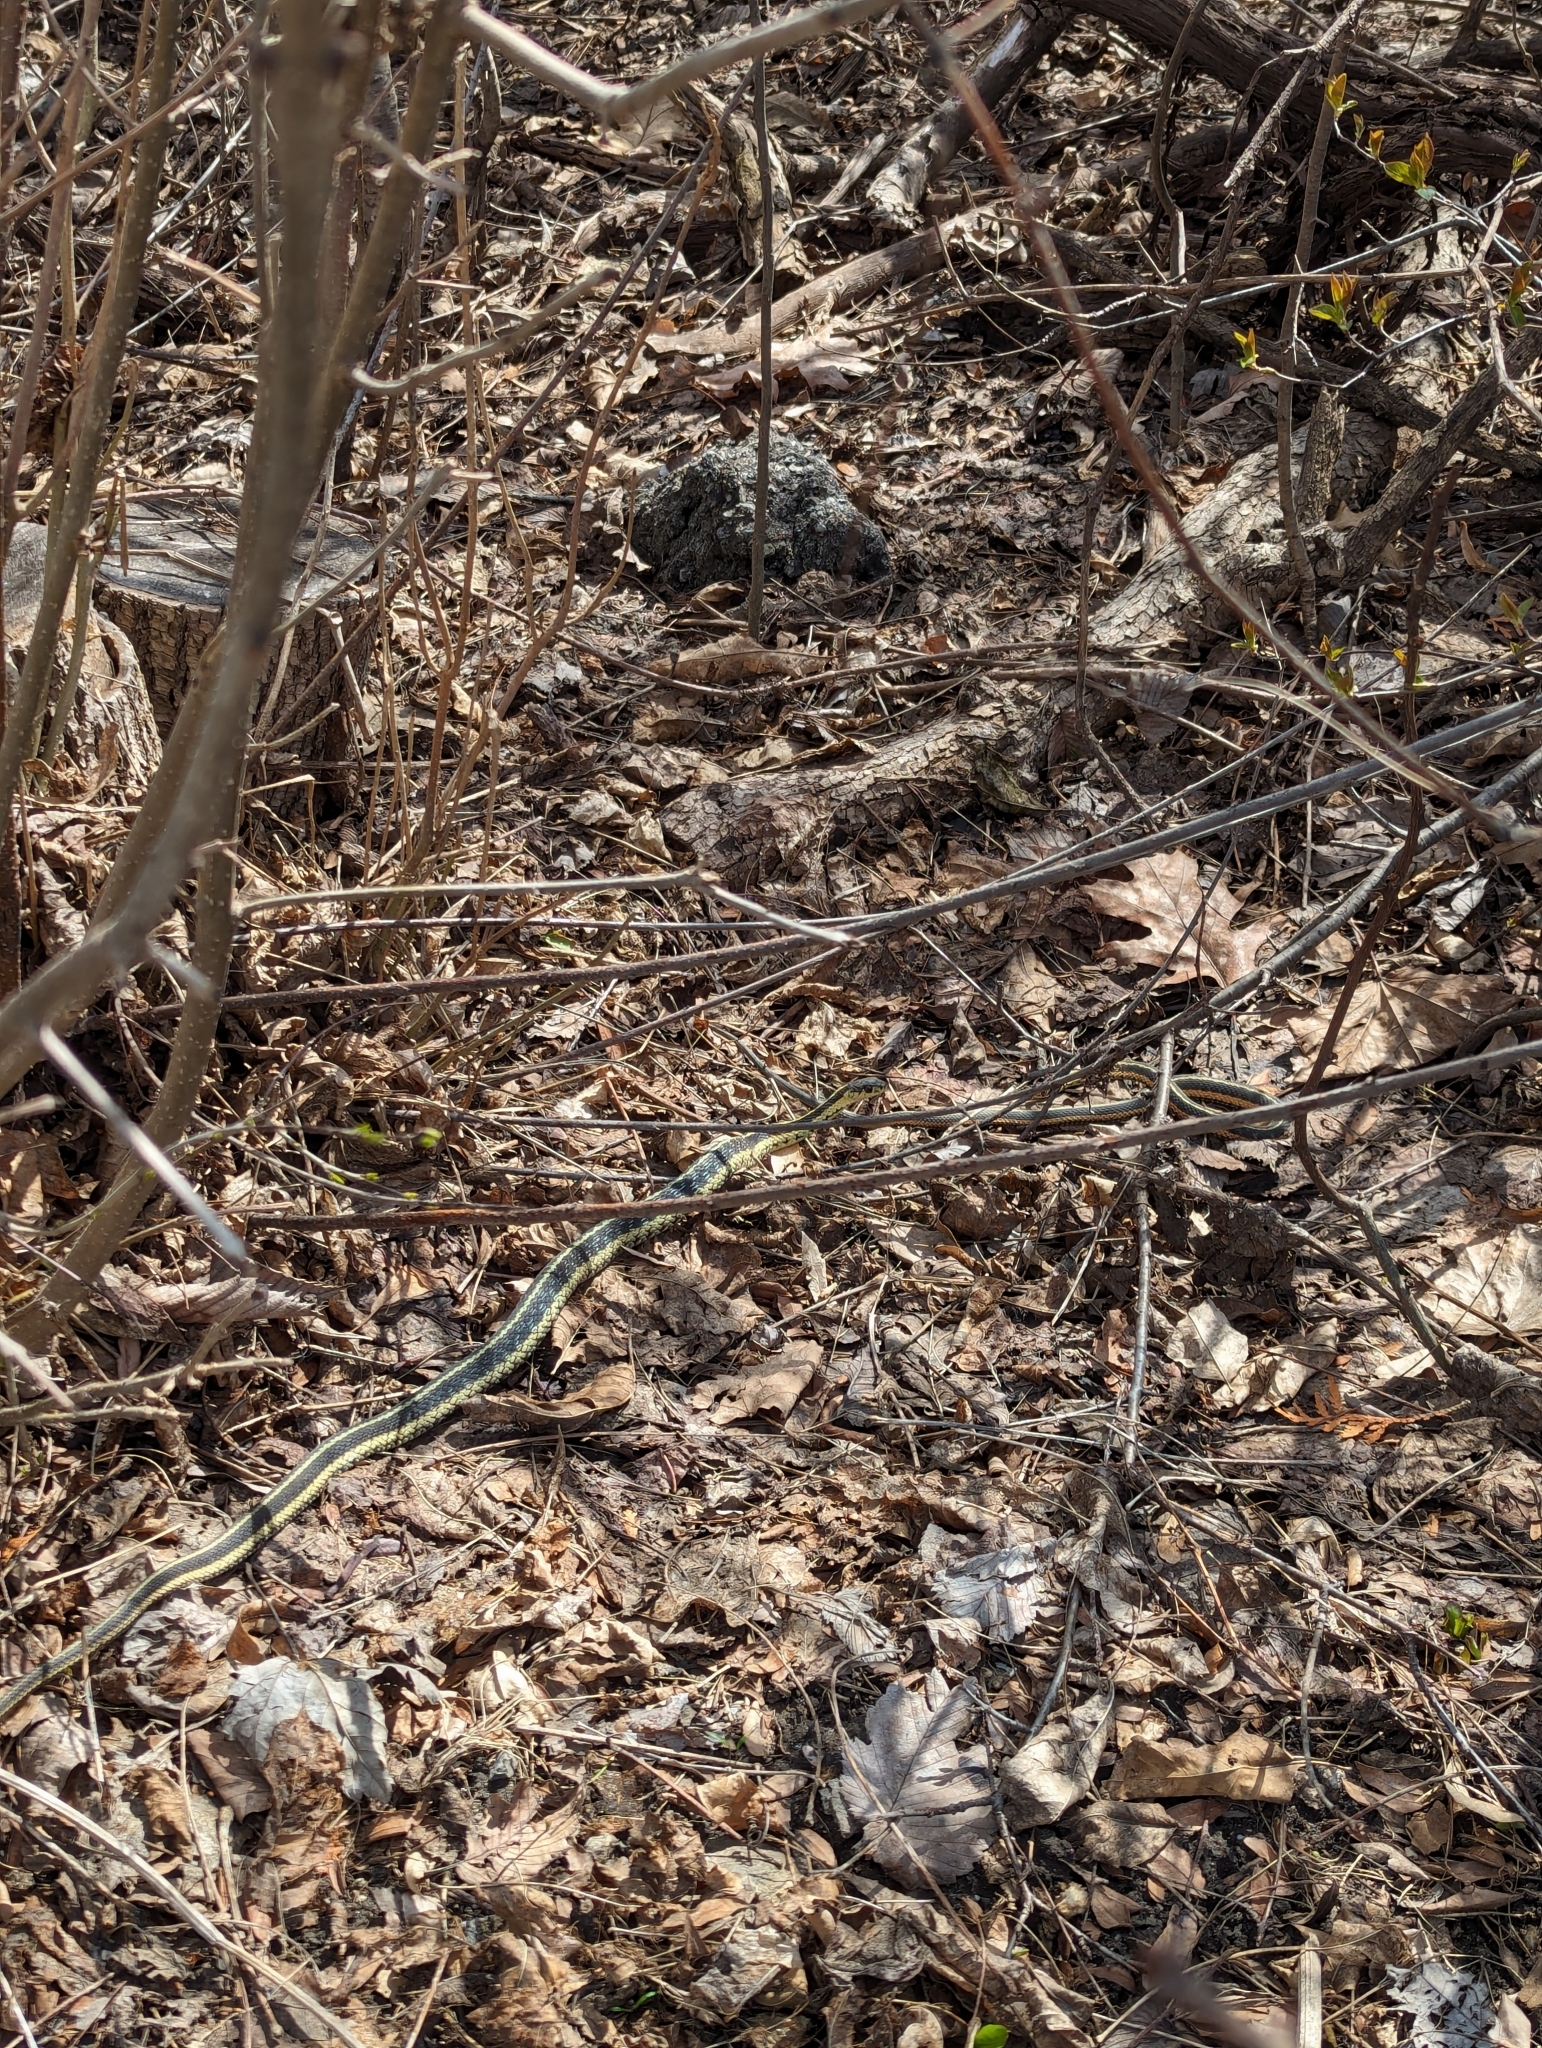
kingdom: Animalia
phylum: Chordata
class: Squamata
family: Colubridae
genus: Thamnophis
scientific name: Thamnophis sirtalis
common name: Common garter snake
